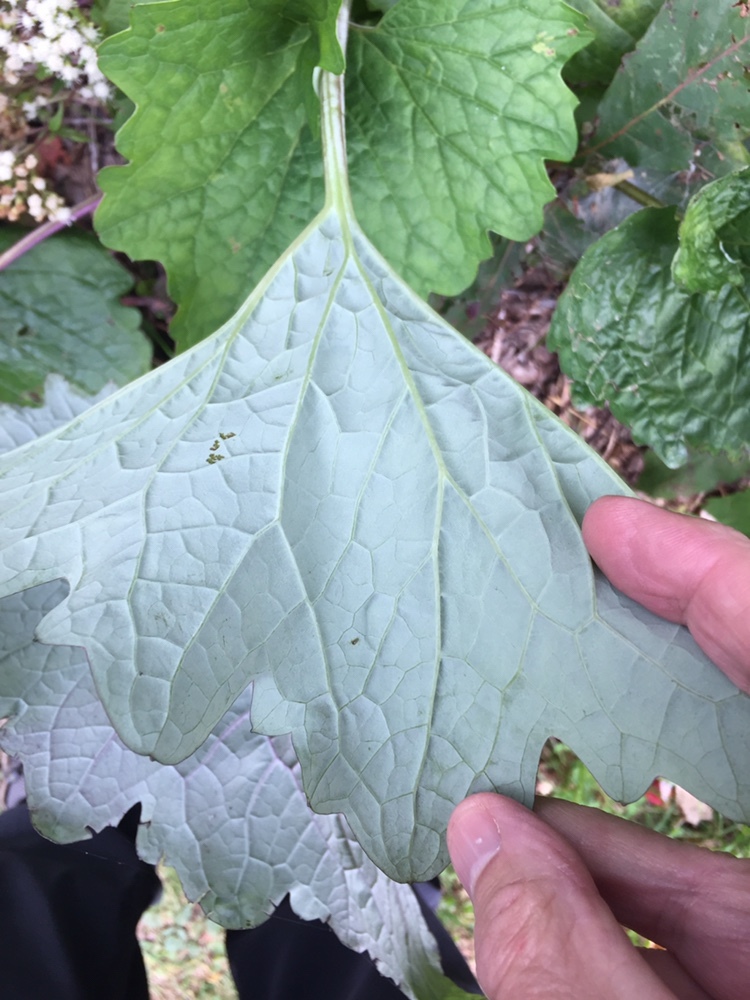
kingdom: Animalia
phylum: Arthropoda
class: Insecta
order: Lepidoptera
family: Gracillariidae
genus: Phyllocnistis
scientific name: Phyllocnistis insignis
